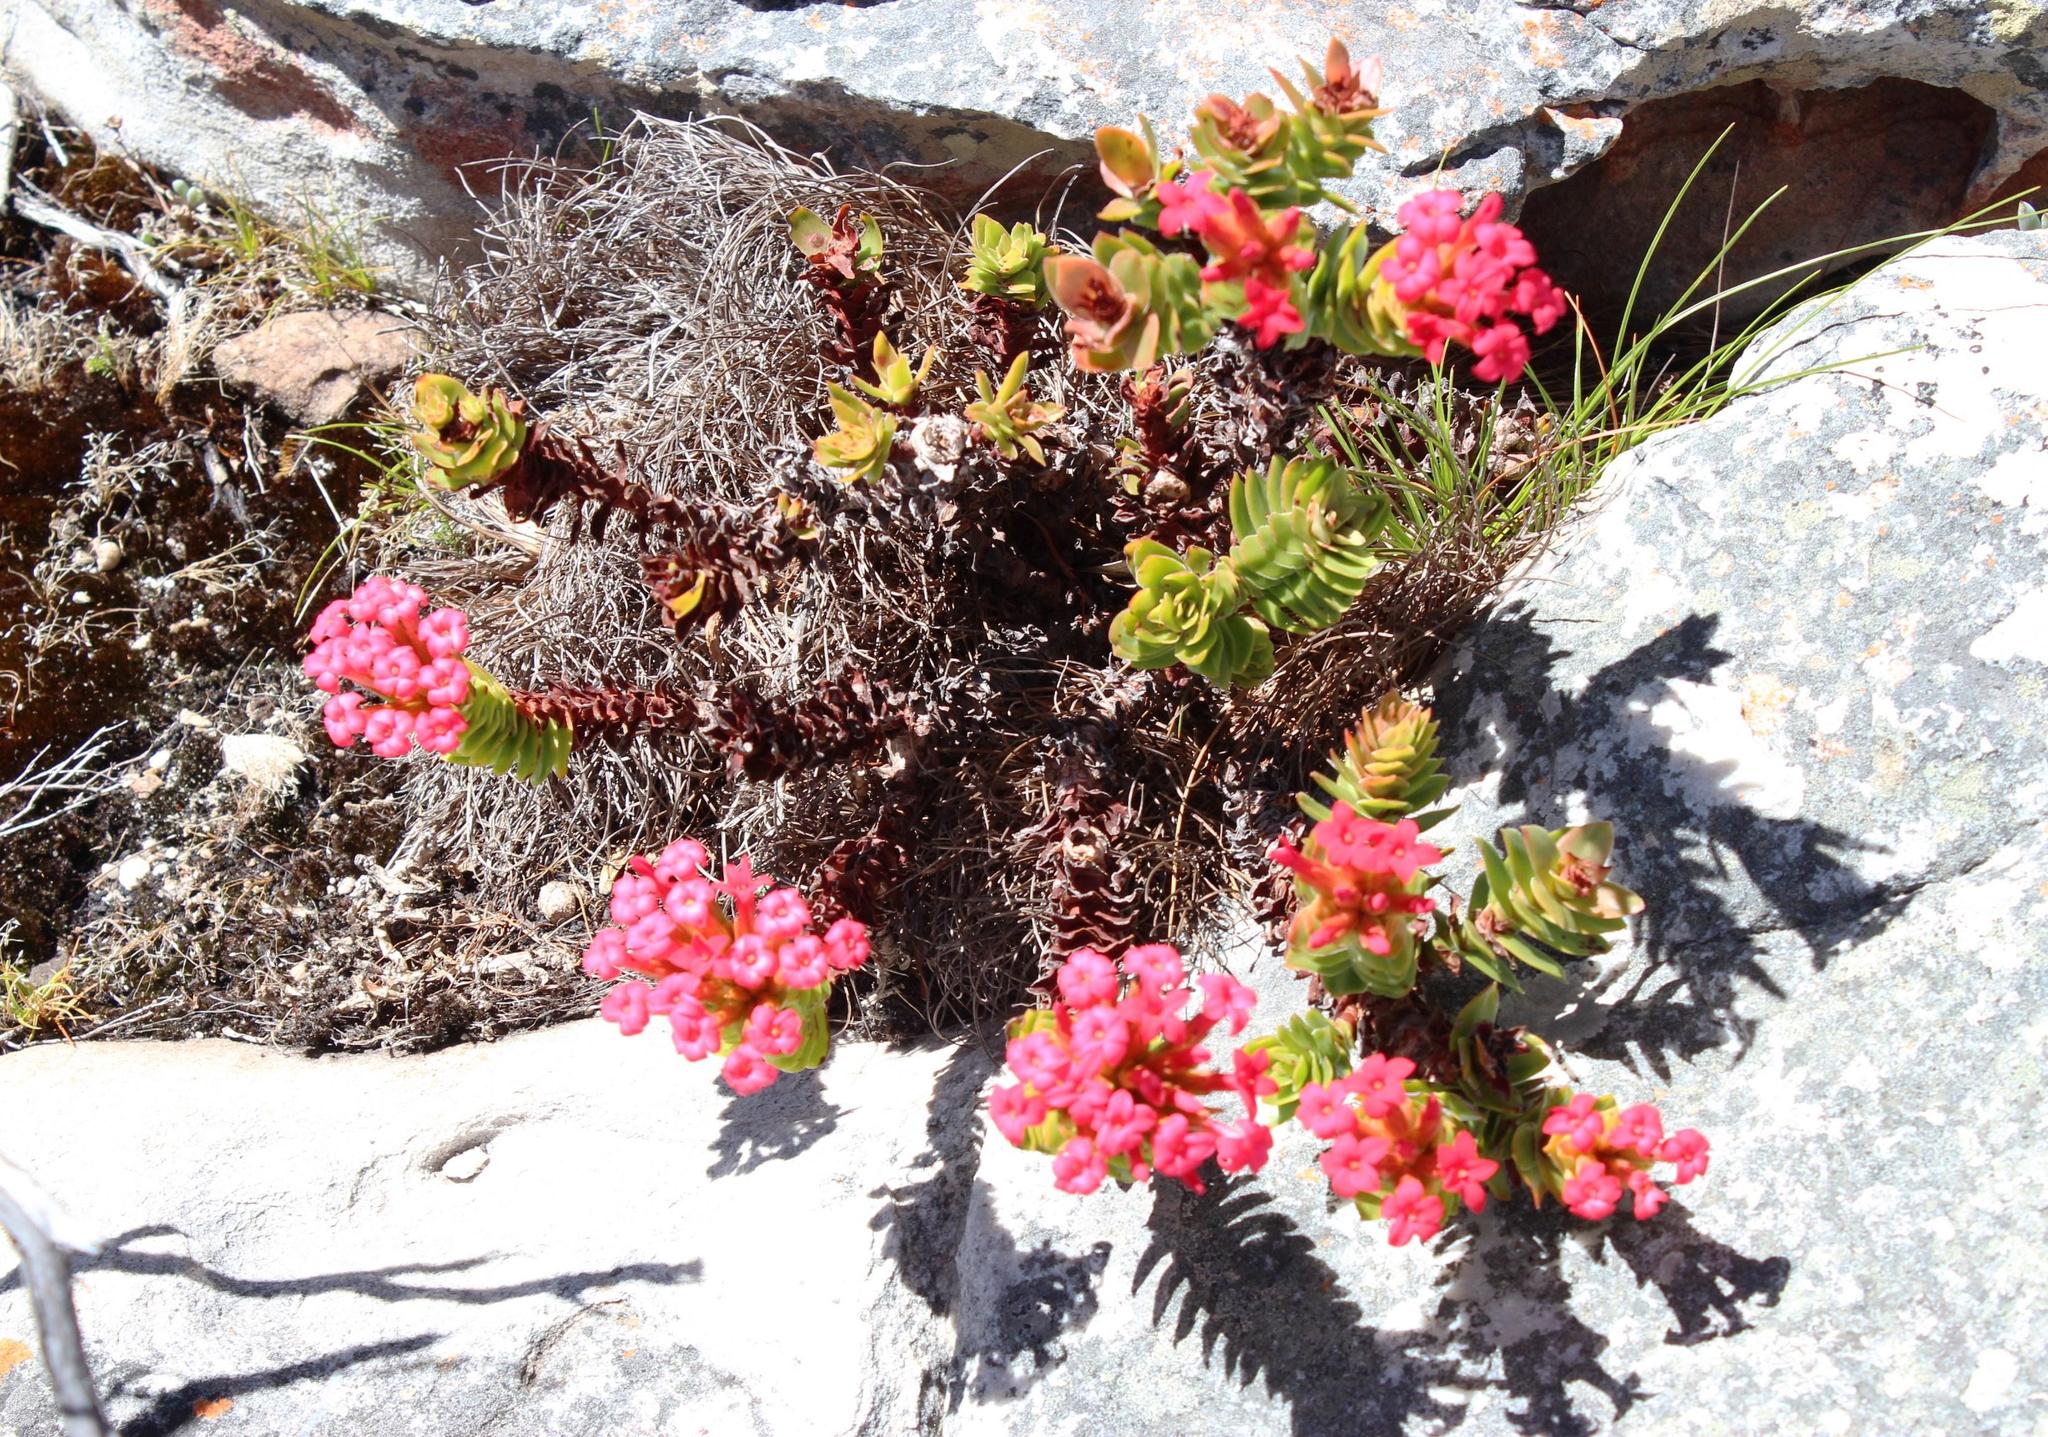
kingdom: Plantae
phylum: Tracheophyta
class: Magnoliopsida
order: Saxifragales
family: Crassulaceae
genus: Crassula
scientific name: Crassula coccinea
